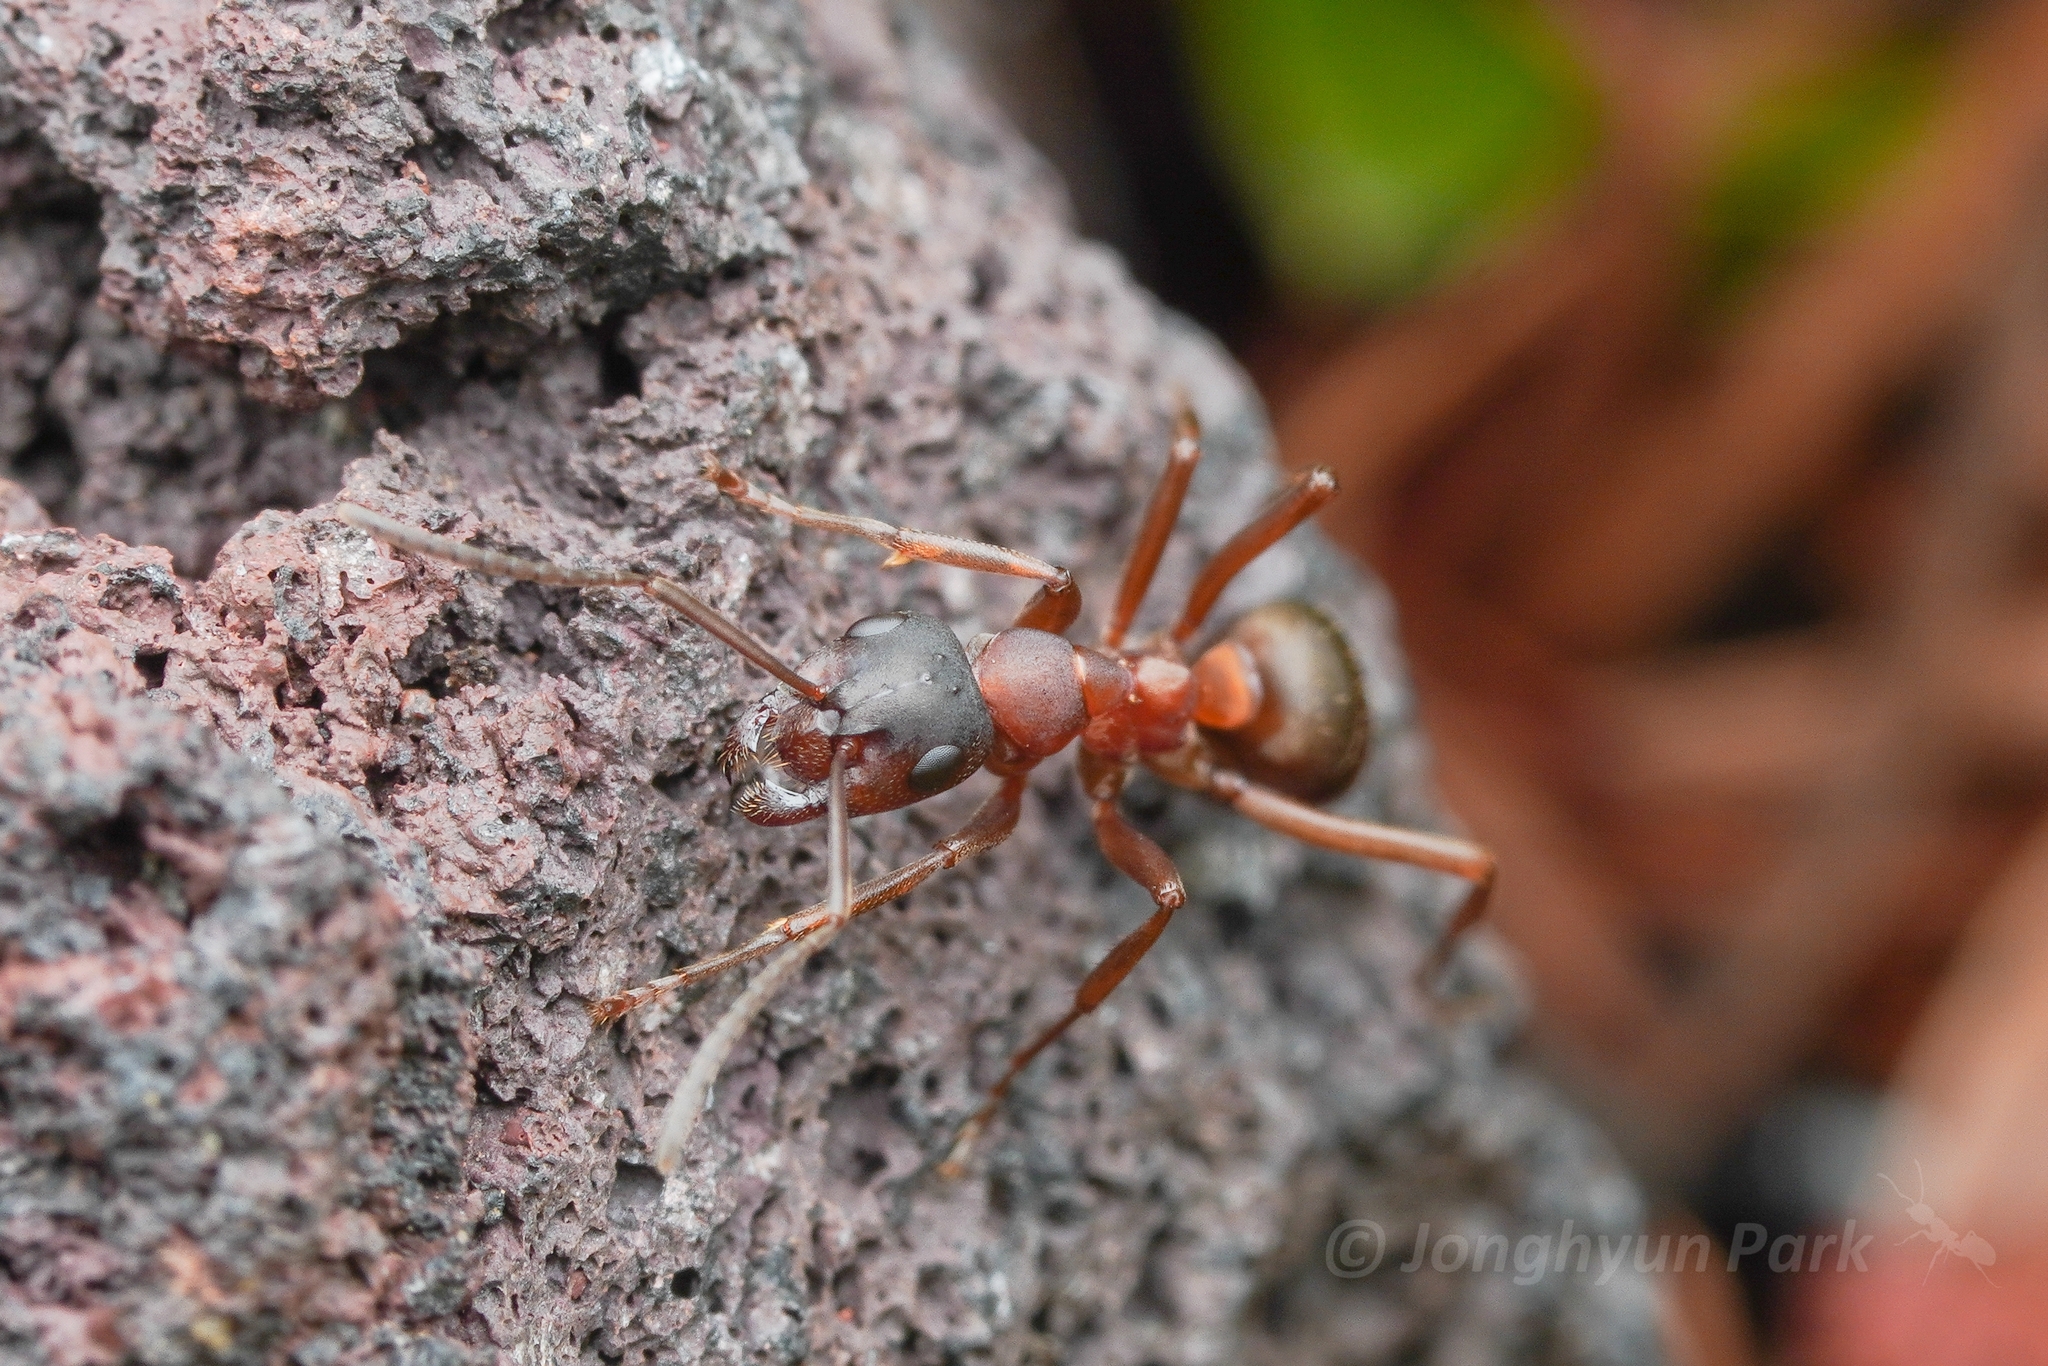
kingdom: Animalia
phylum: Arthropoda
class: Insecta
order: Hymenoptera
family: Formicidae
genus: Formica
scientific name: Formica sanguinea
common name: Blood-red ant
